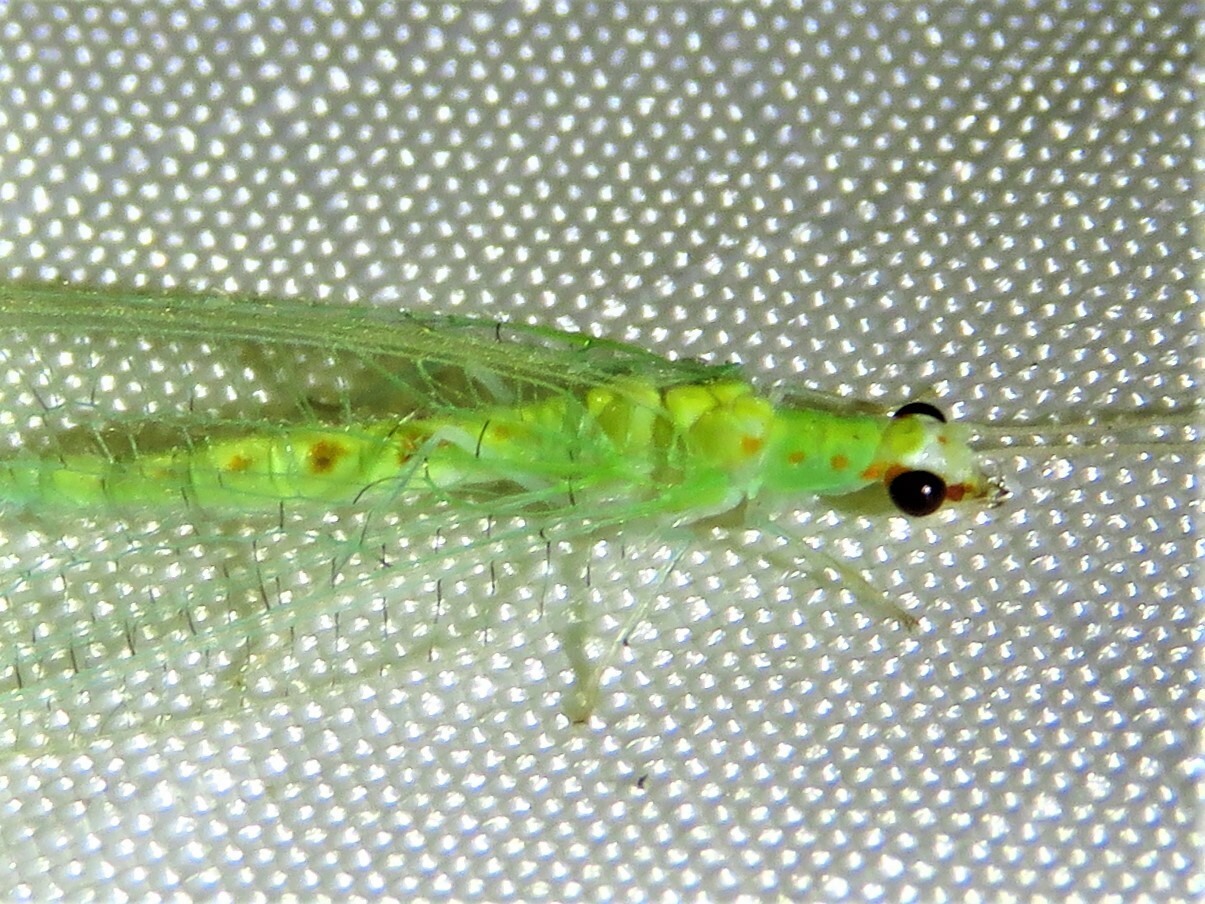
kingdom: Animalia
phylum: Arthropoda
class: Insecta
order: Neuroptera
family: Chrysopidae
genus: Chrysopa
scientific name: Chrysopa quadripunctata
